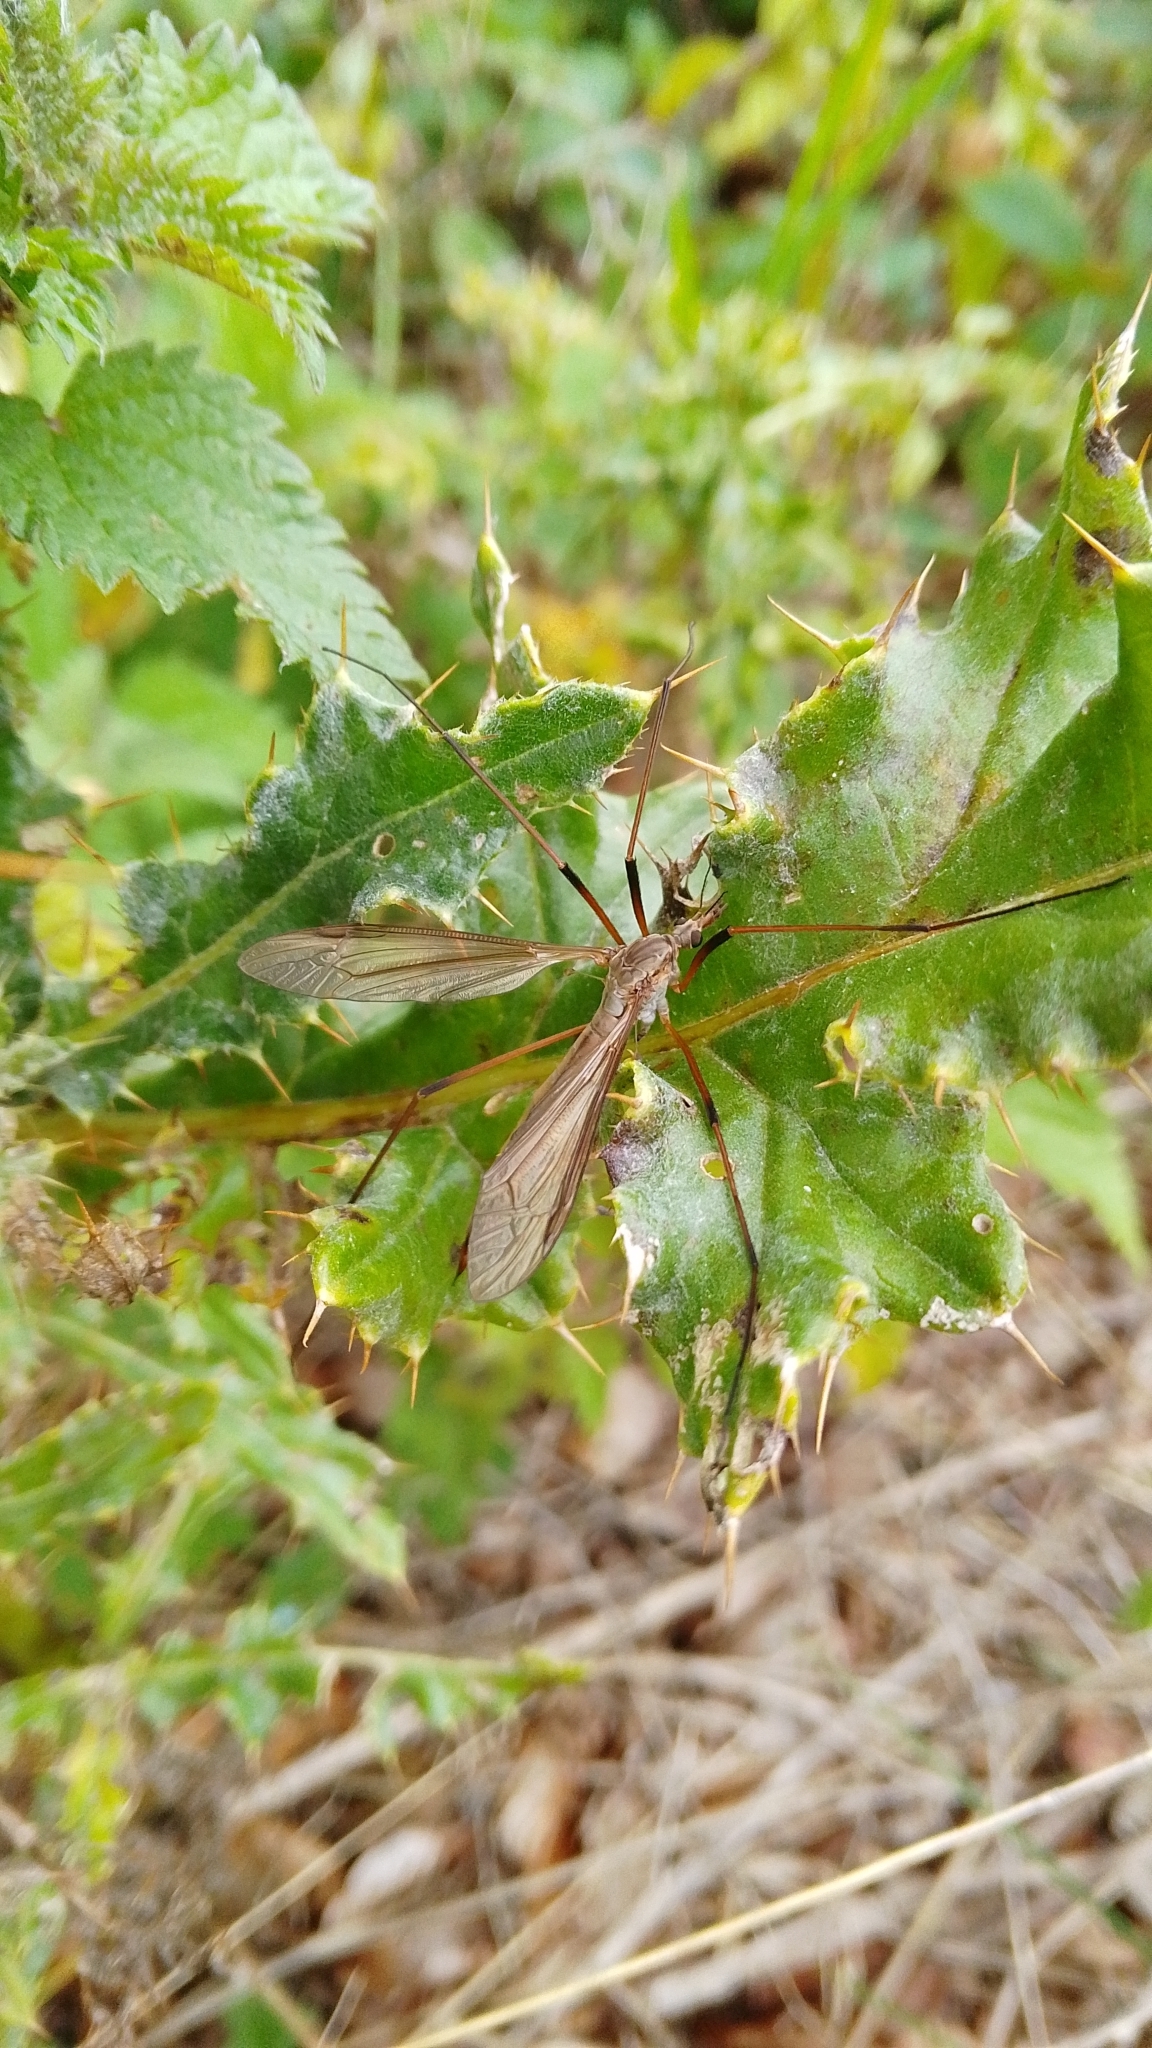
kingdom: Animalia
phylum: Arthropoda
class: Insecta
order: Diptera
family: Tipulidae
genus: Tipula
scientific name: Tipula oleracea
